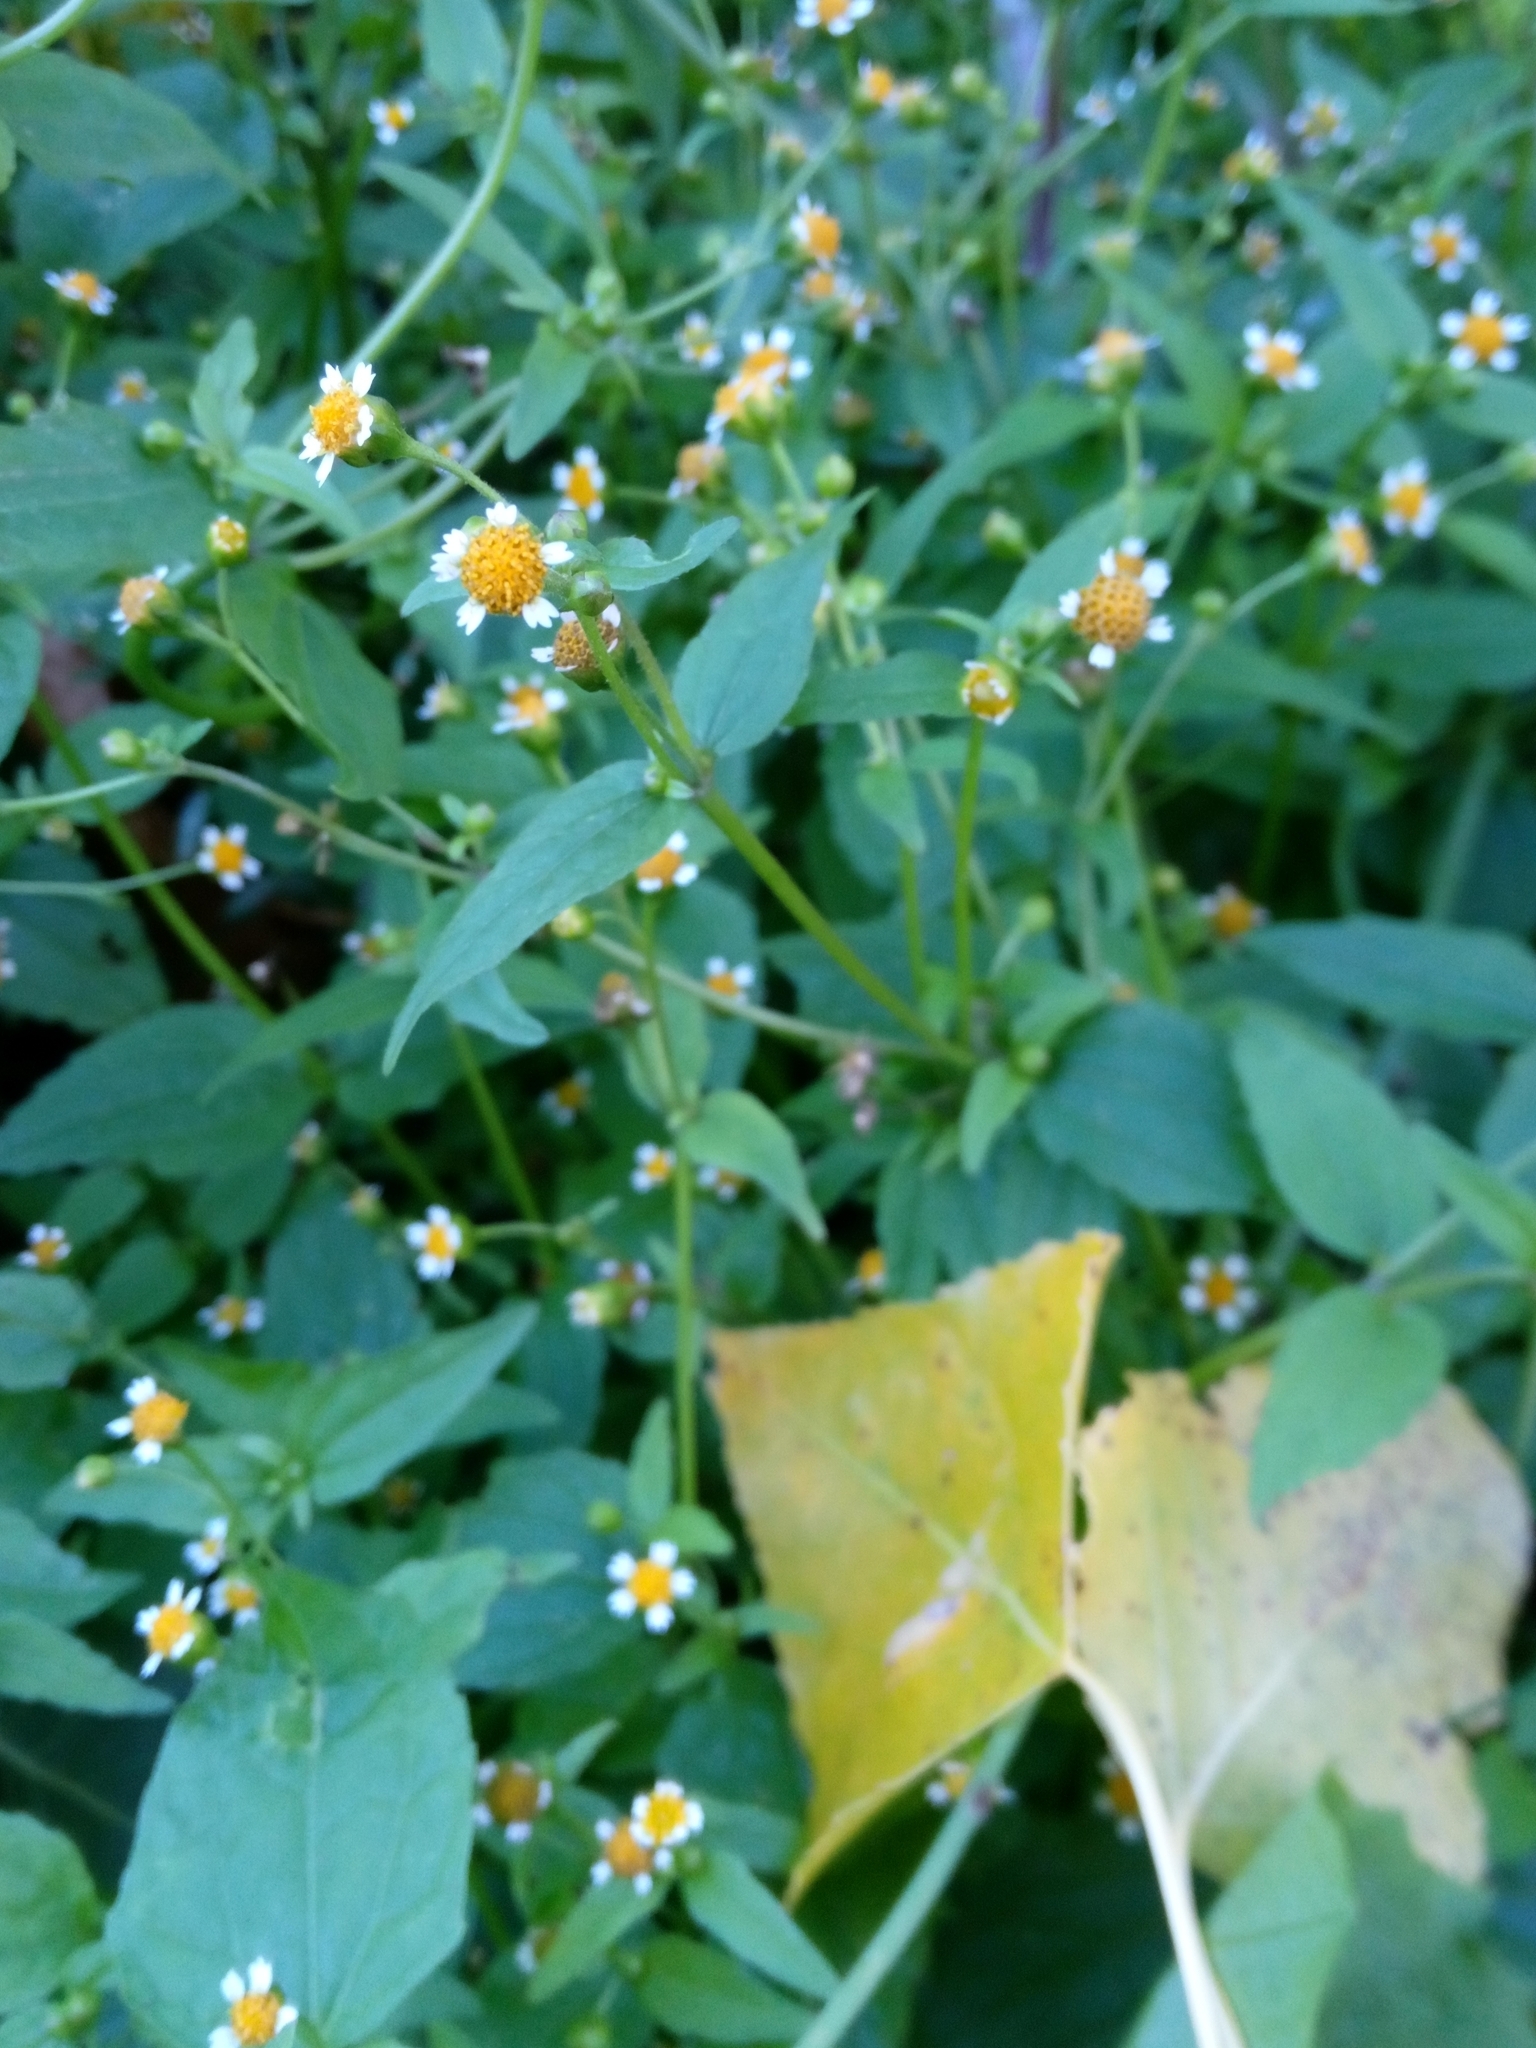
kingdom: Plantae
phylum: Tracheophyta
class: Magnoliopsida
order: Asterales
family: Asteraceae
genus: Galinsoga
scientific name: Galinsoga parviflora
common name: Gallant soldier
